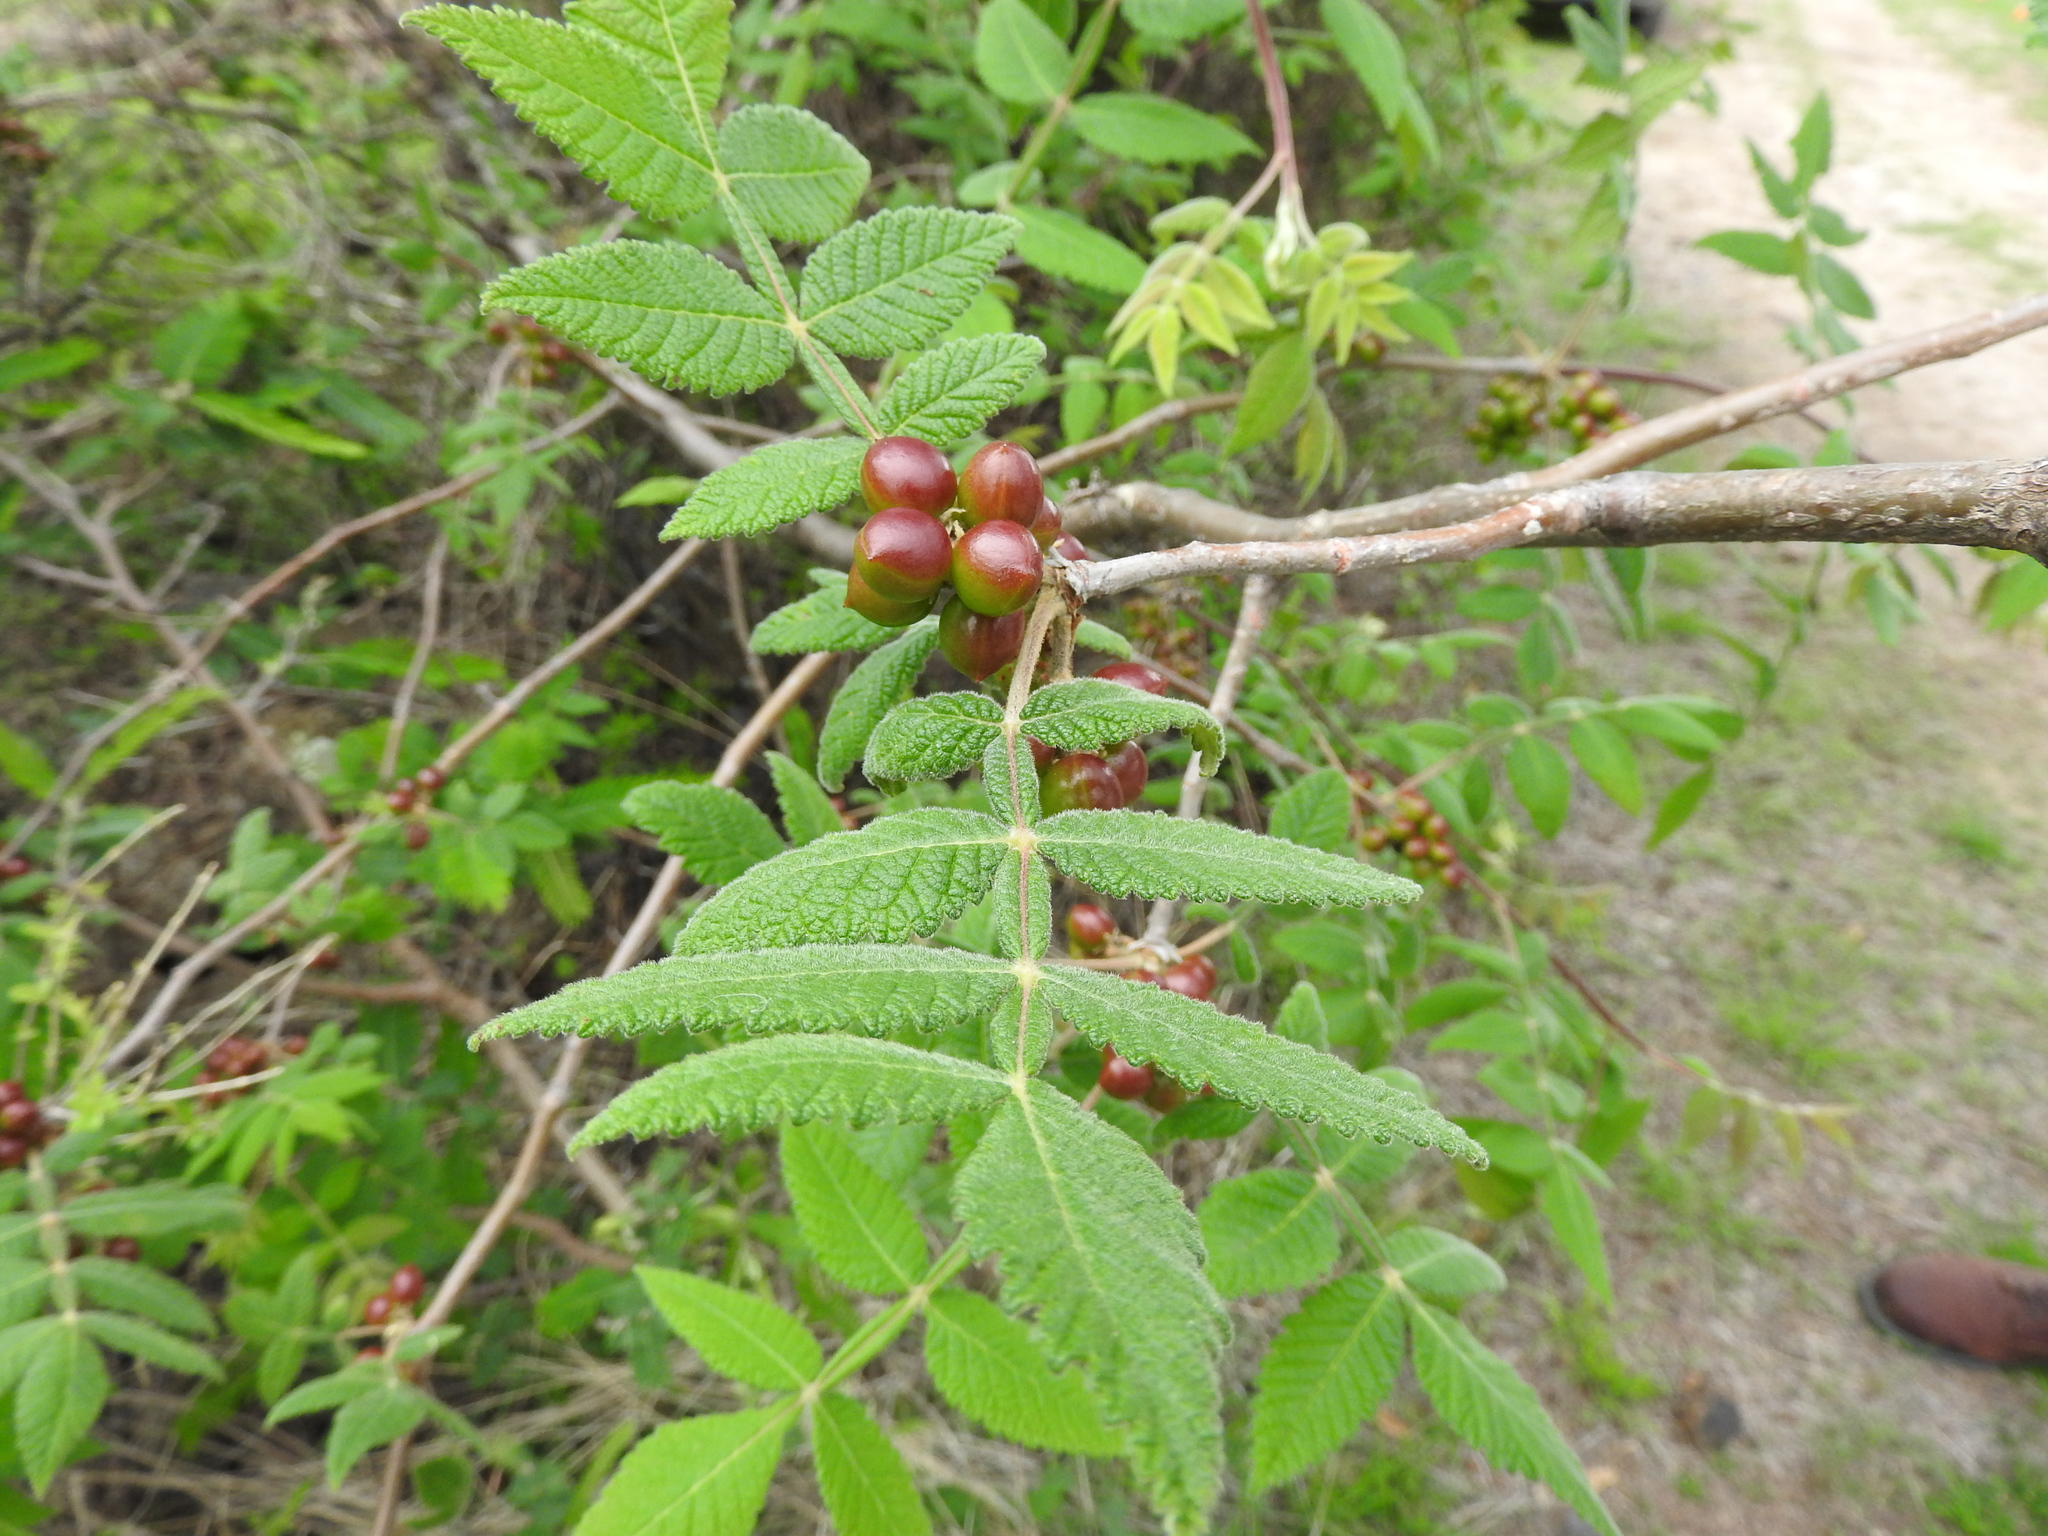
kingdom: Plantae
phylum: Tracheophyta
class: Magnoliopsida
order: Sapindales
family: Burseraceae
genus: Bursera
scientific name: Bursera palmeri
